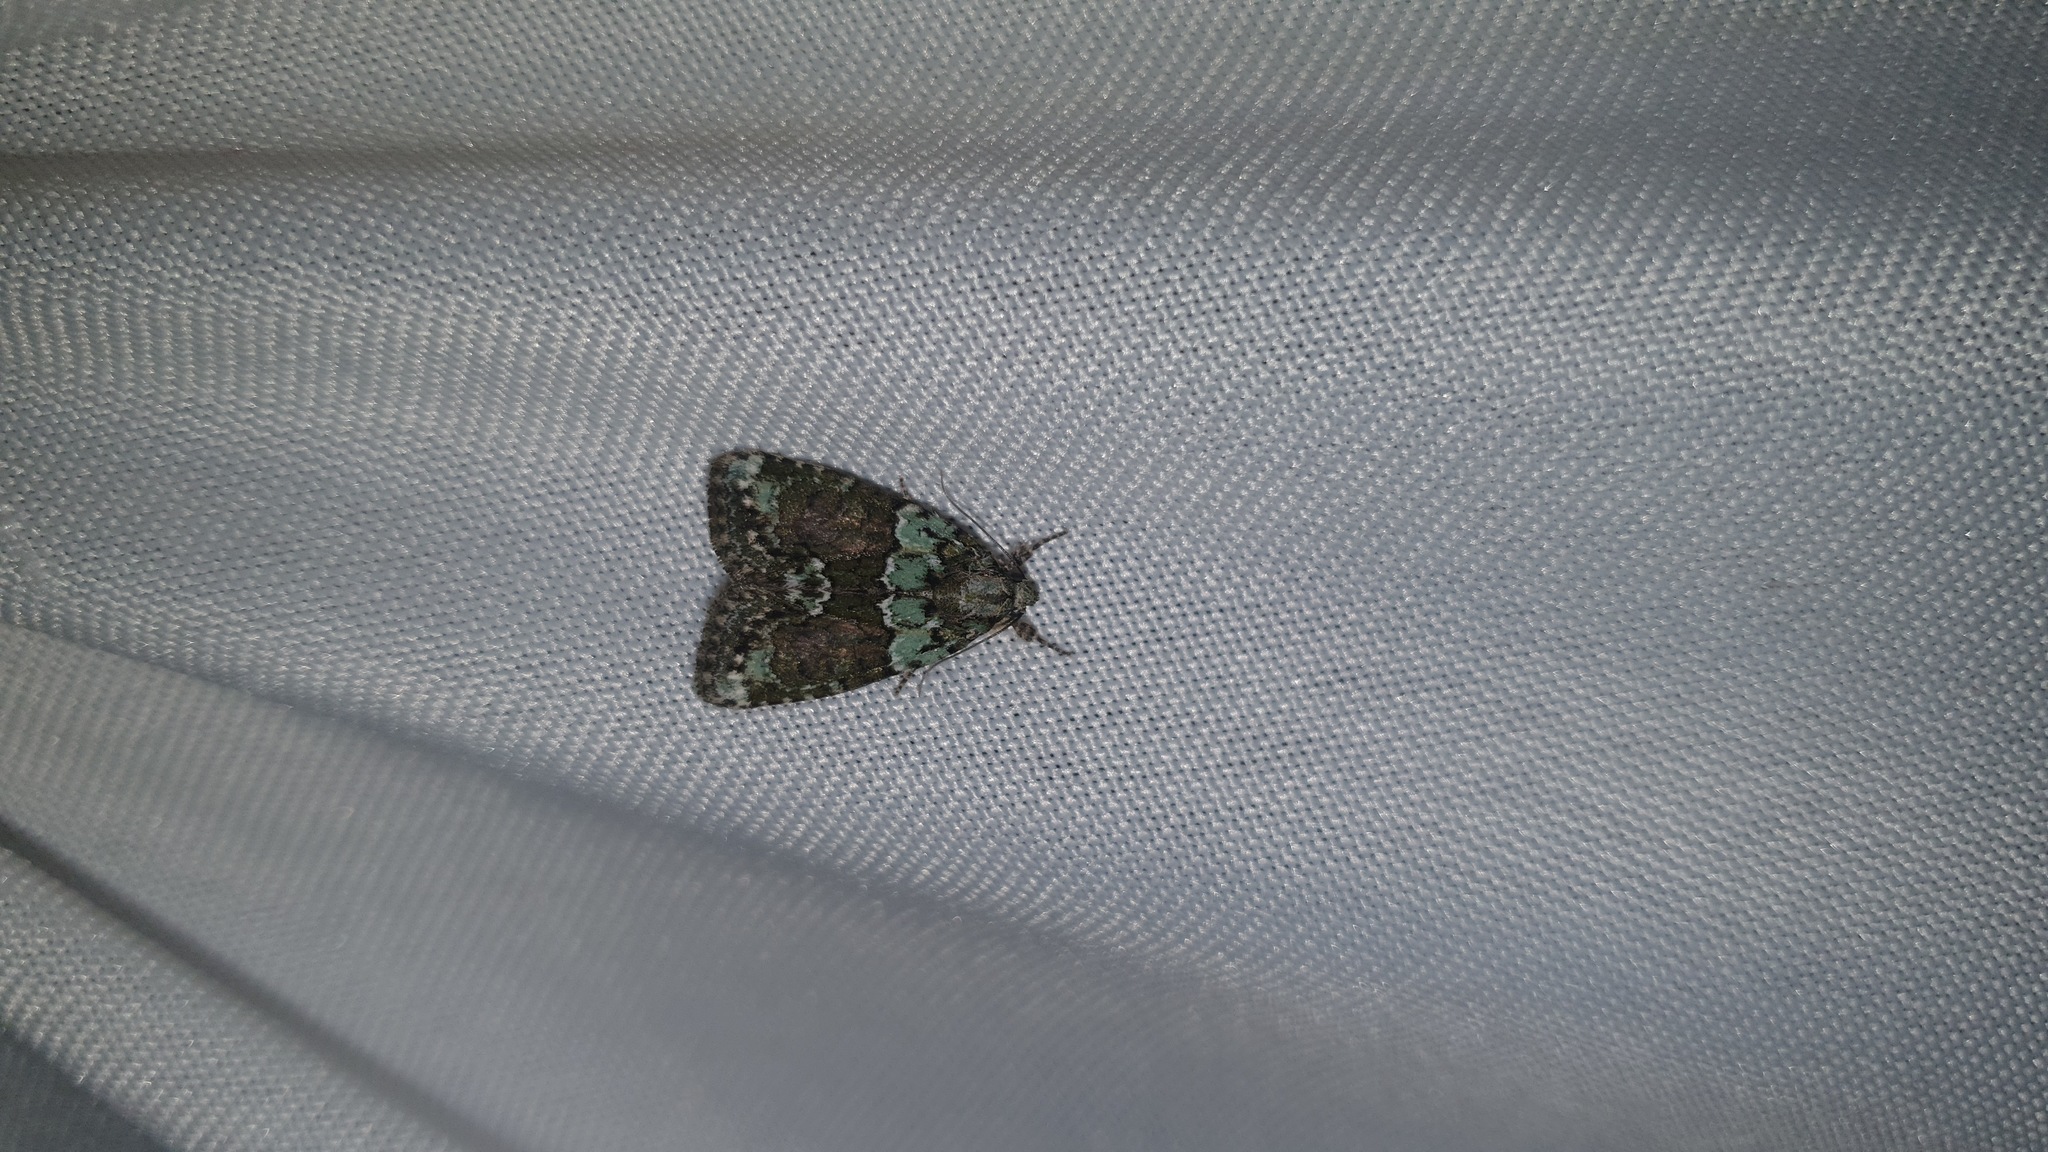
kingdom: Animalia
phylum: Arthropoda
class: Insecta
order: Lepidoptera
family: Noctuidae
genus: Cryphia
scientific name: Cryphia algae
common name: Tree-lichen beauty
